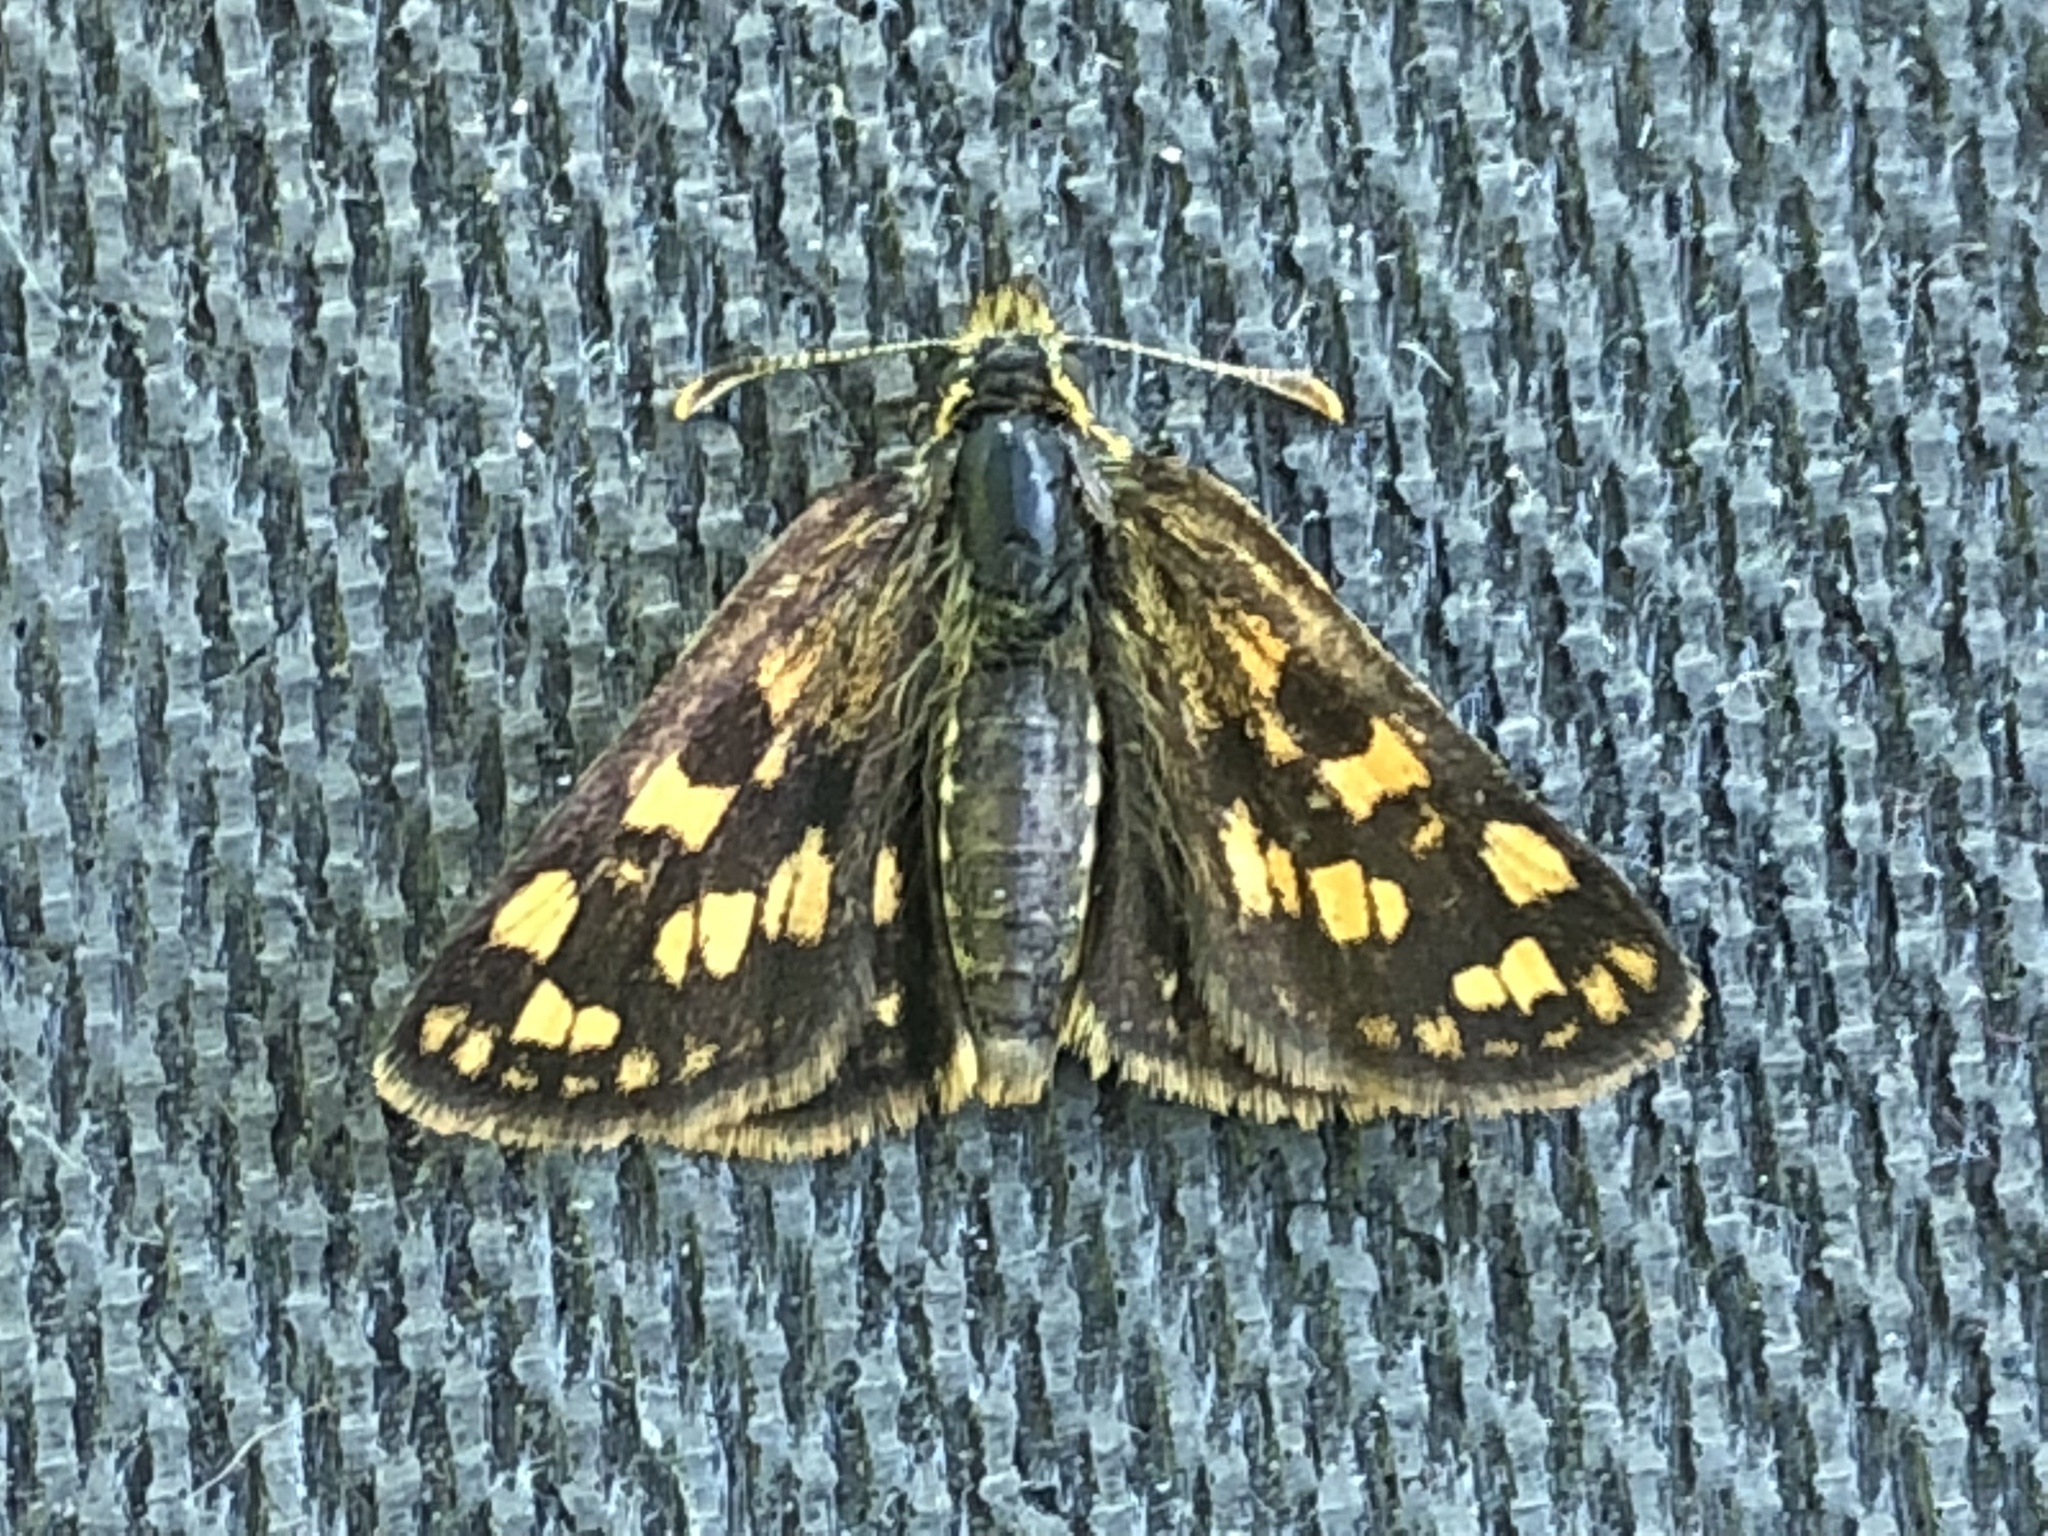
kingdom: Animalia
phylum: Arthropoda
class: Insecta
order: Lepidoptera
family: Hesperiidae
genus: Carterocephalus
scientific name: Carterocephalus skada
